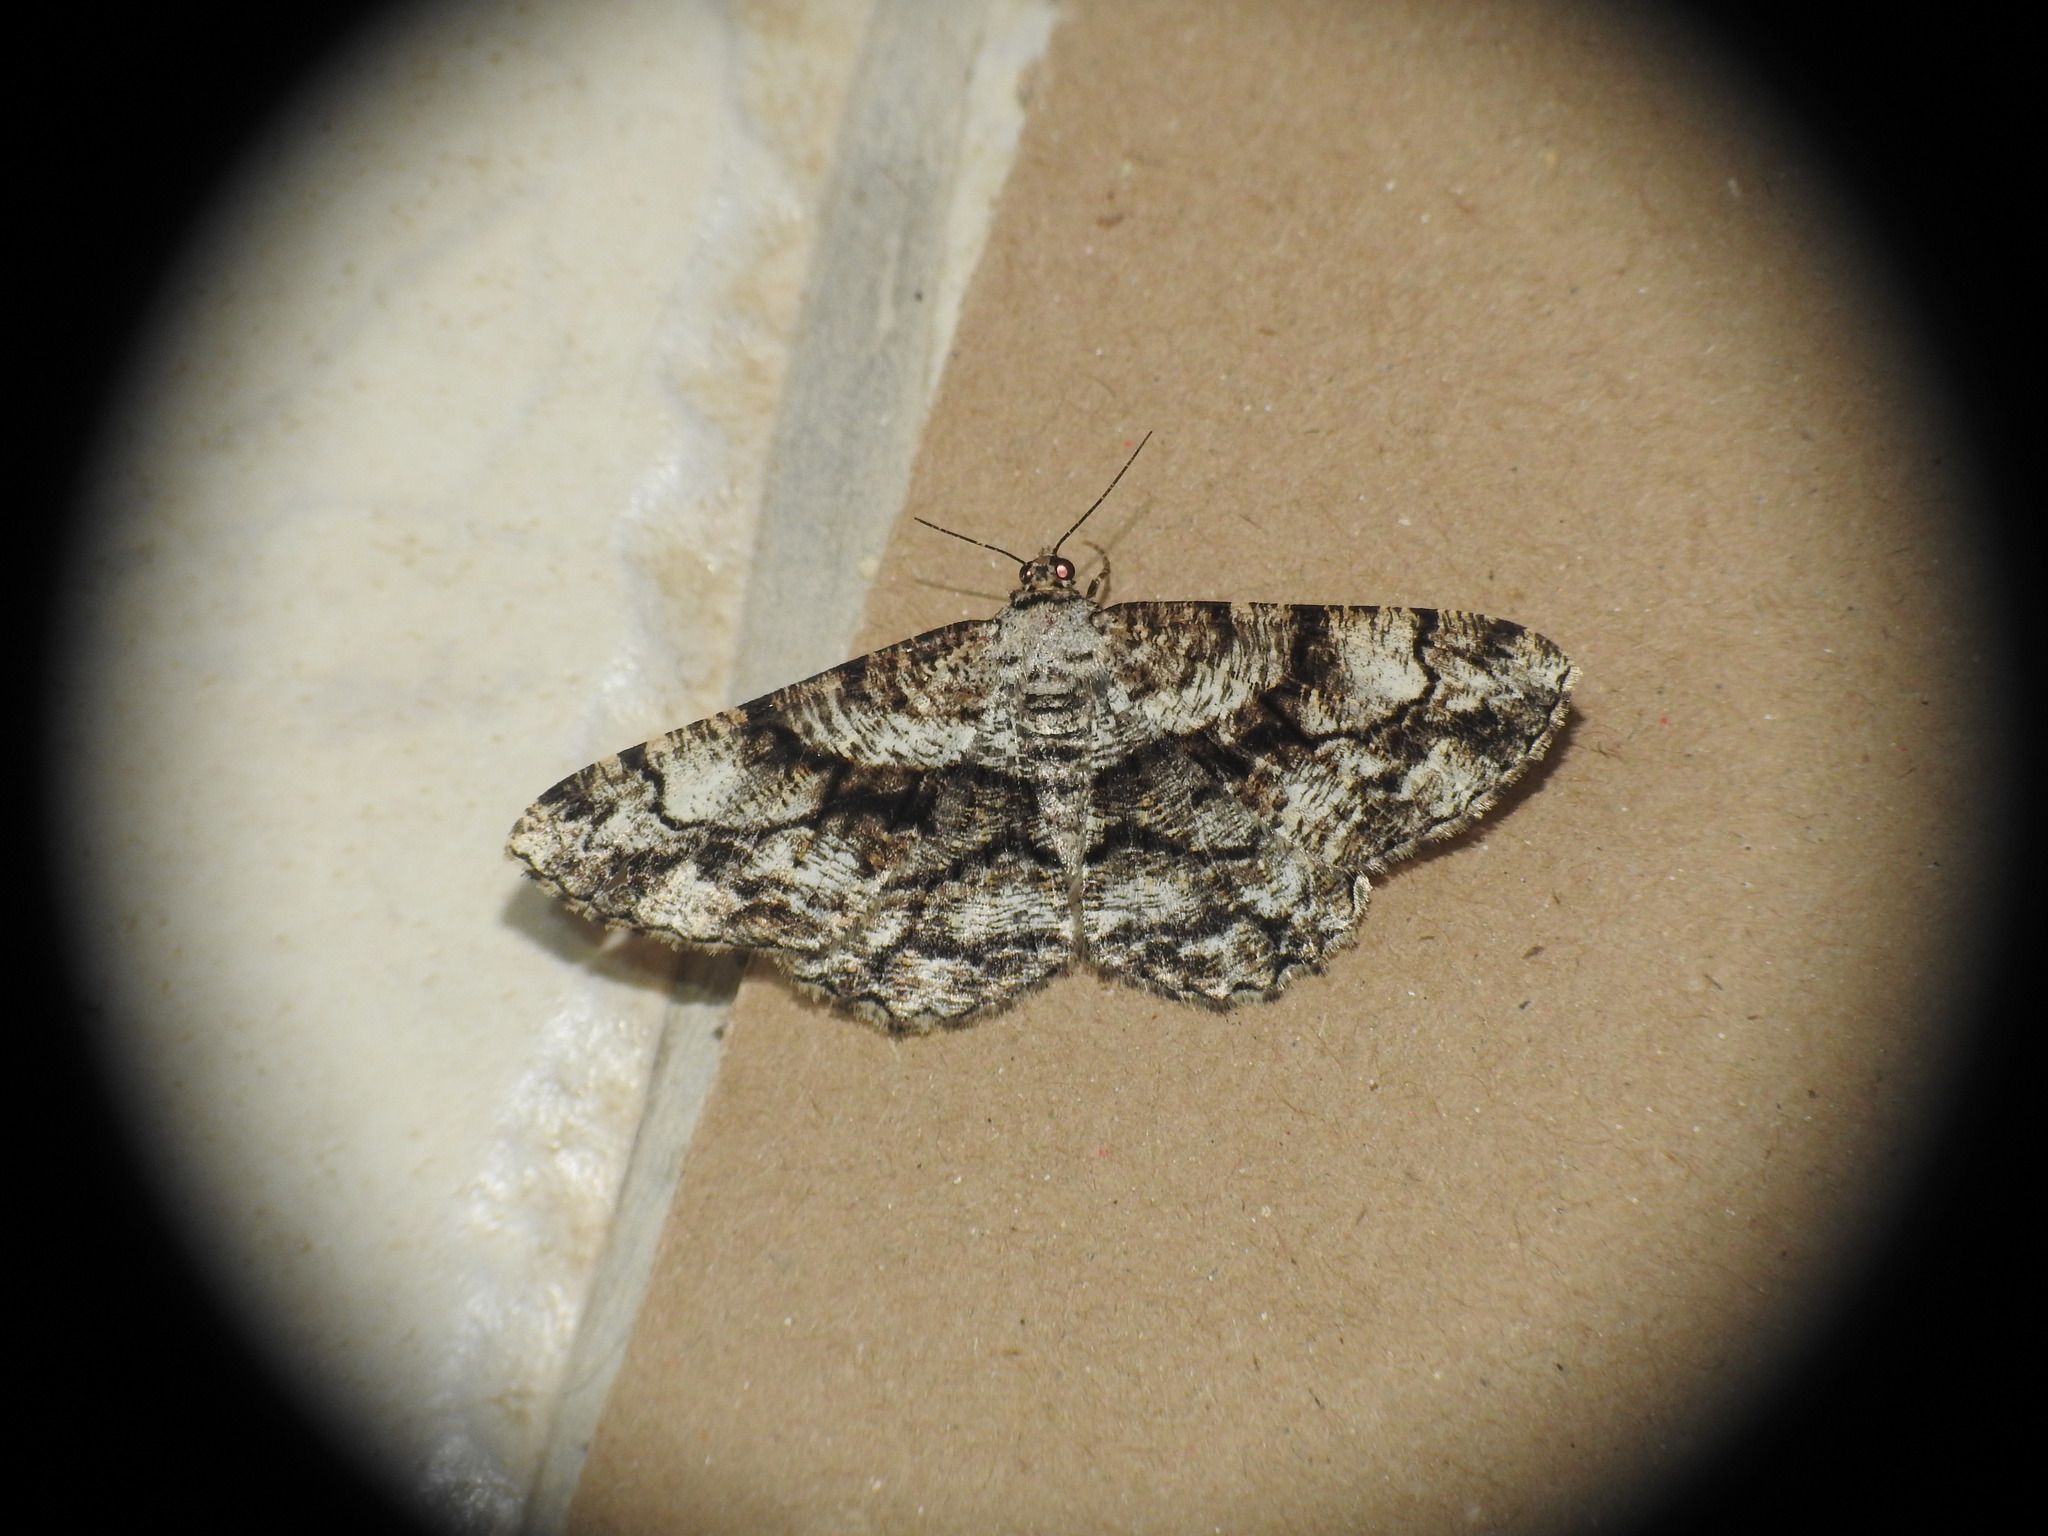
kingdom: Animalia
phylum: Arthropoda
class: Insecta
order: Lepidoptera
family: Geometridae
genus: Peribatodes
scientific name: Peribatodes umbraria
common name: Olive-tree beauty
